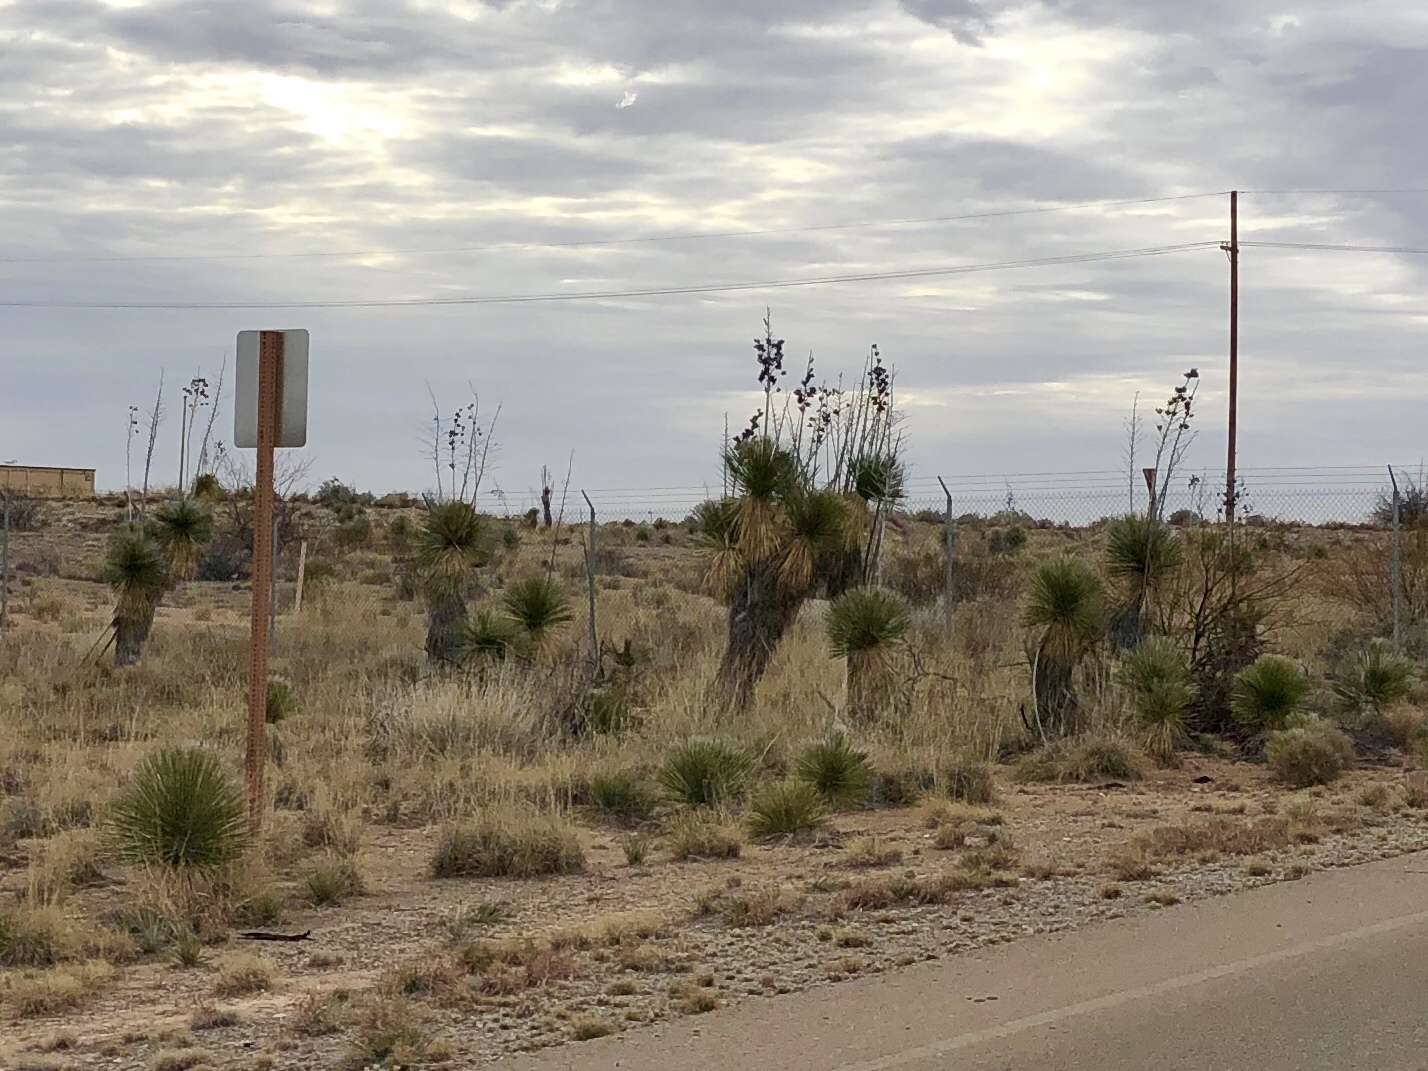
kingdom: Plantae
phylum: Tracheophyta
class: Liliopsida
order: Asparagales
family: Asparagaceae
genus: Yucca
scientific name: Yucca elata
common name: Palmella
